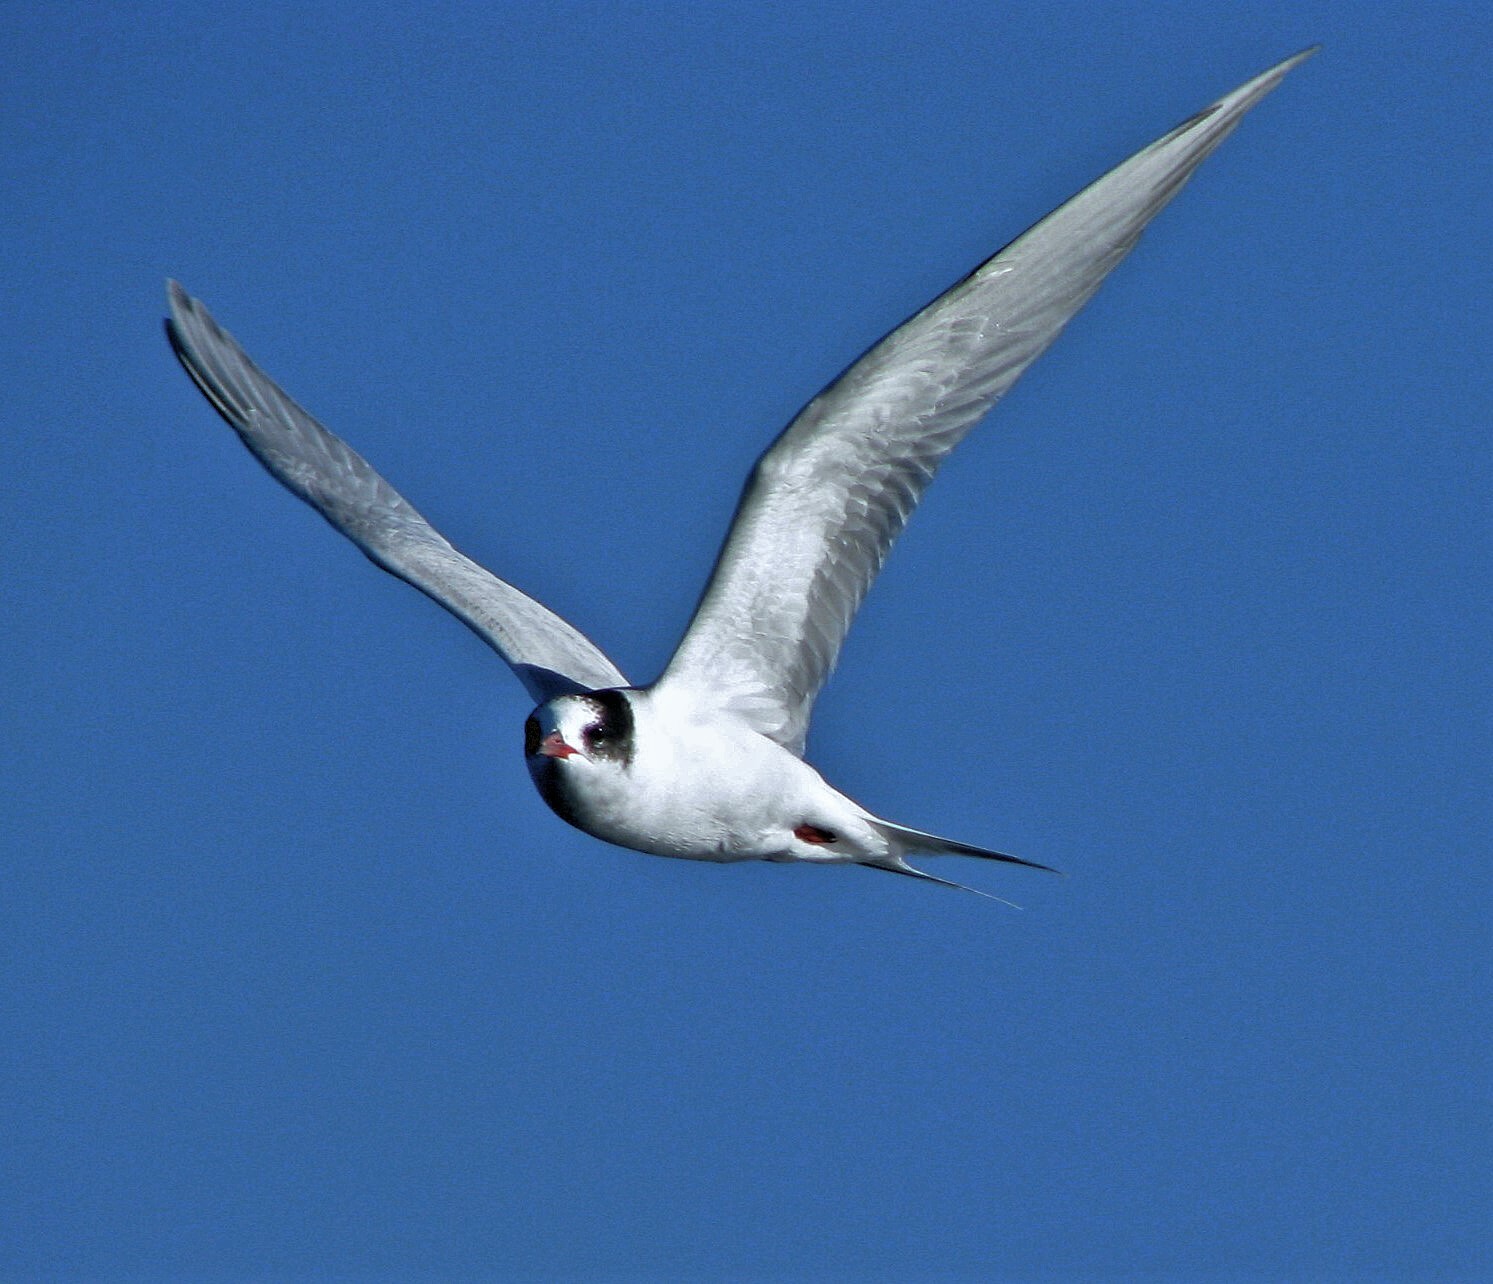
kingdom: Animalia
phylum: Chordata
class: Aves
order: Charadriiformes
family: Laridae
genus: Sterna
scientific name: Sterna hirundinacea
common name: South american tern
